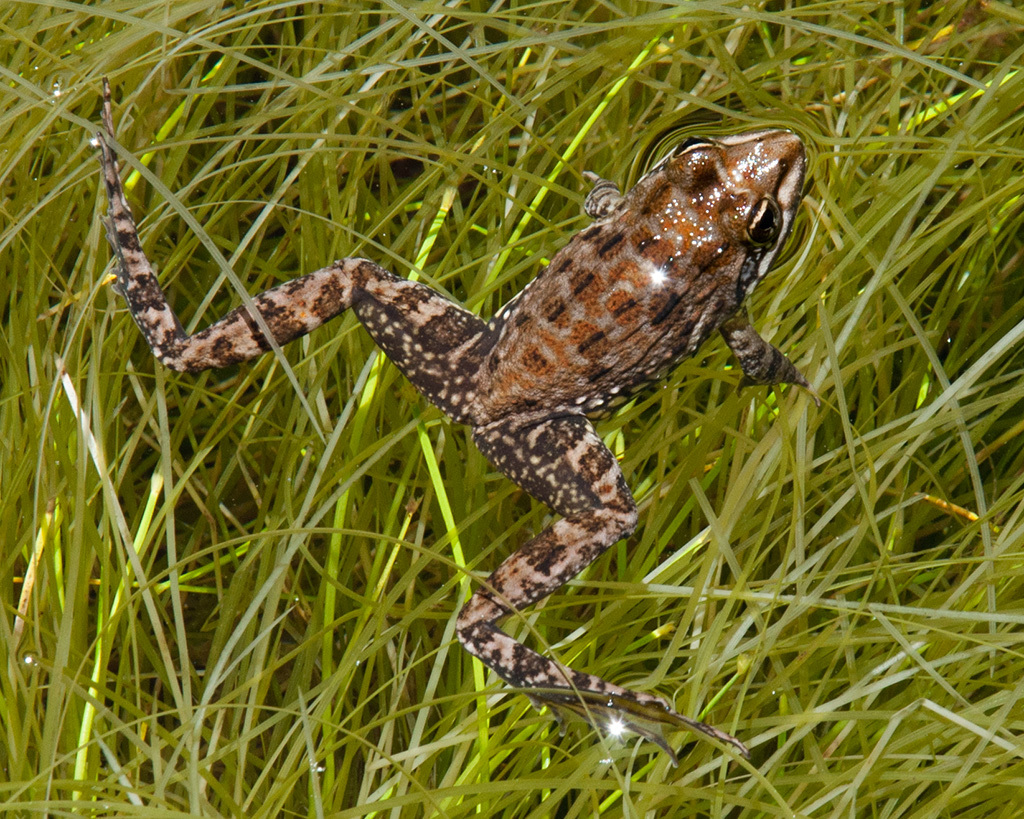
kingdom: Animalia
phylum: Chordata
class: Amphibia
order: Anura
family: Pyxicephalidae
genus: Amietia
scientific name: Amietia fuscigula
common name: Cape rana
